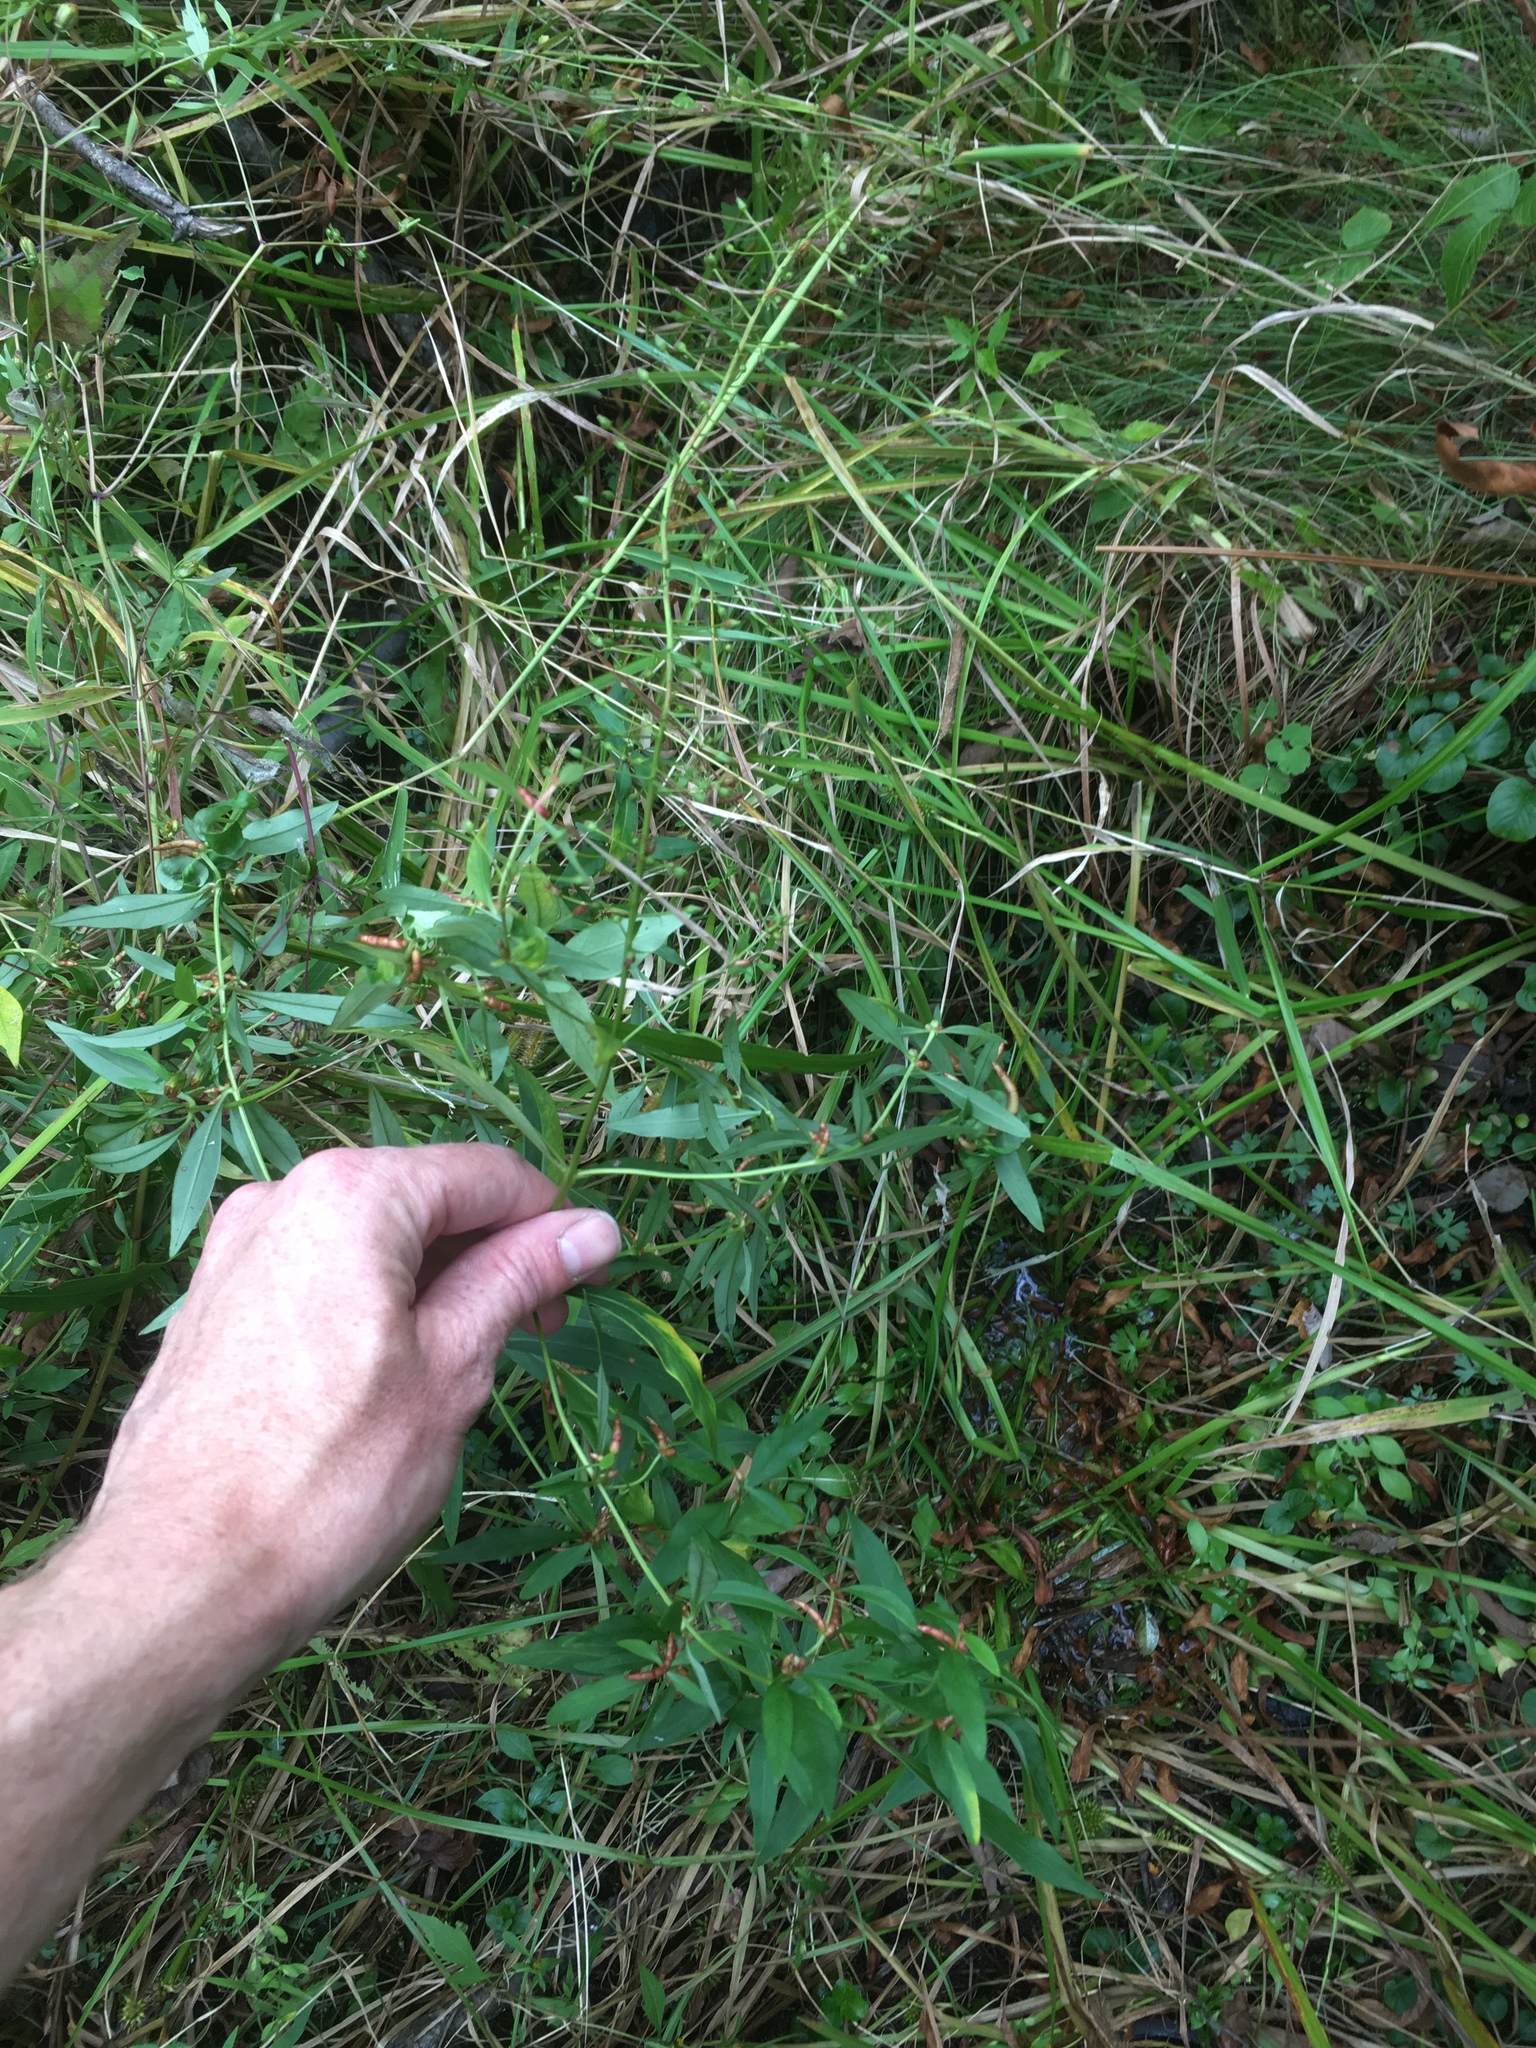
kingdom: Plantae
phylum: Tracheophyta
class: Magnoliopsida
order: Ericales
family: Primulaceae
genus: Lysimachia
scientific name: Lysimachia terrestris
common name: Lake loosestrife
